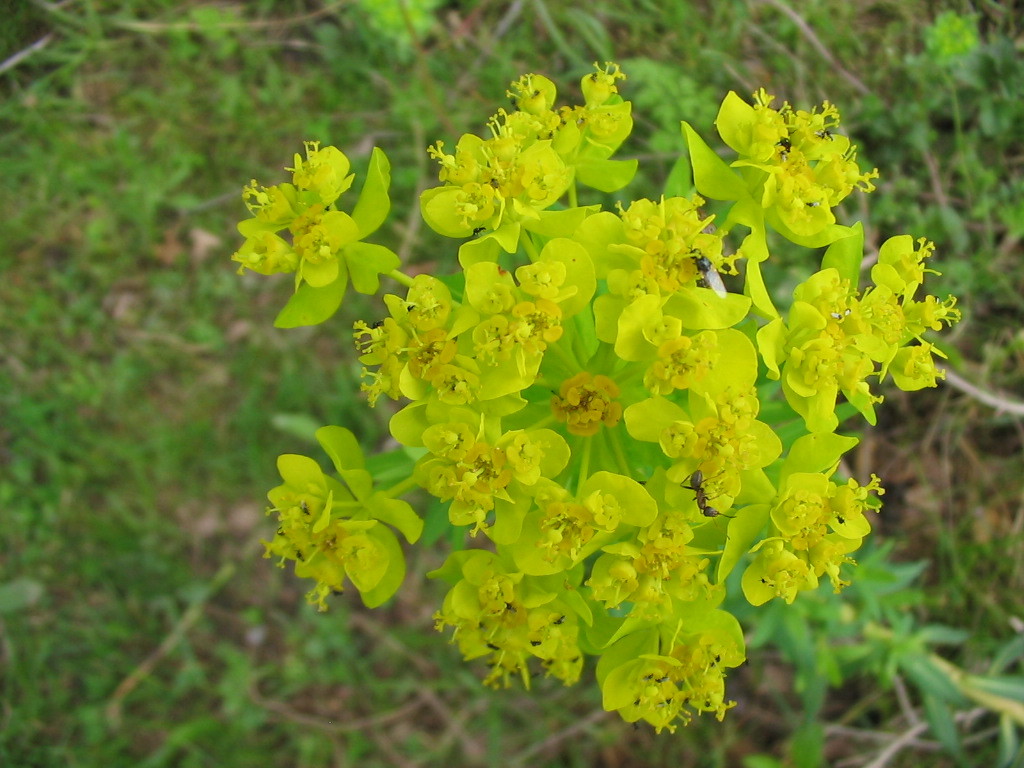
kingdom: Plantae
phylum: Tracheophyta
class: Magnoliopsida
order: Malpighiales
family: Euphorbiaceae
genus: Euphorbia
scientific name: Euphorbia palustris
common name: Marsh spurge
